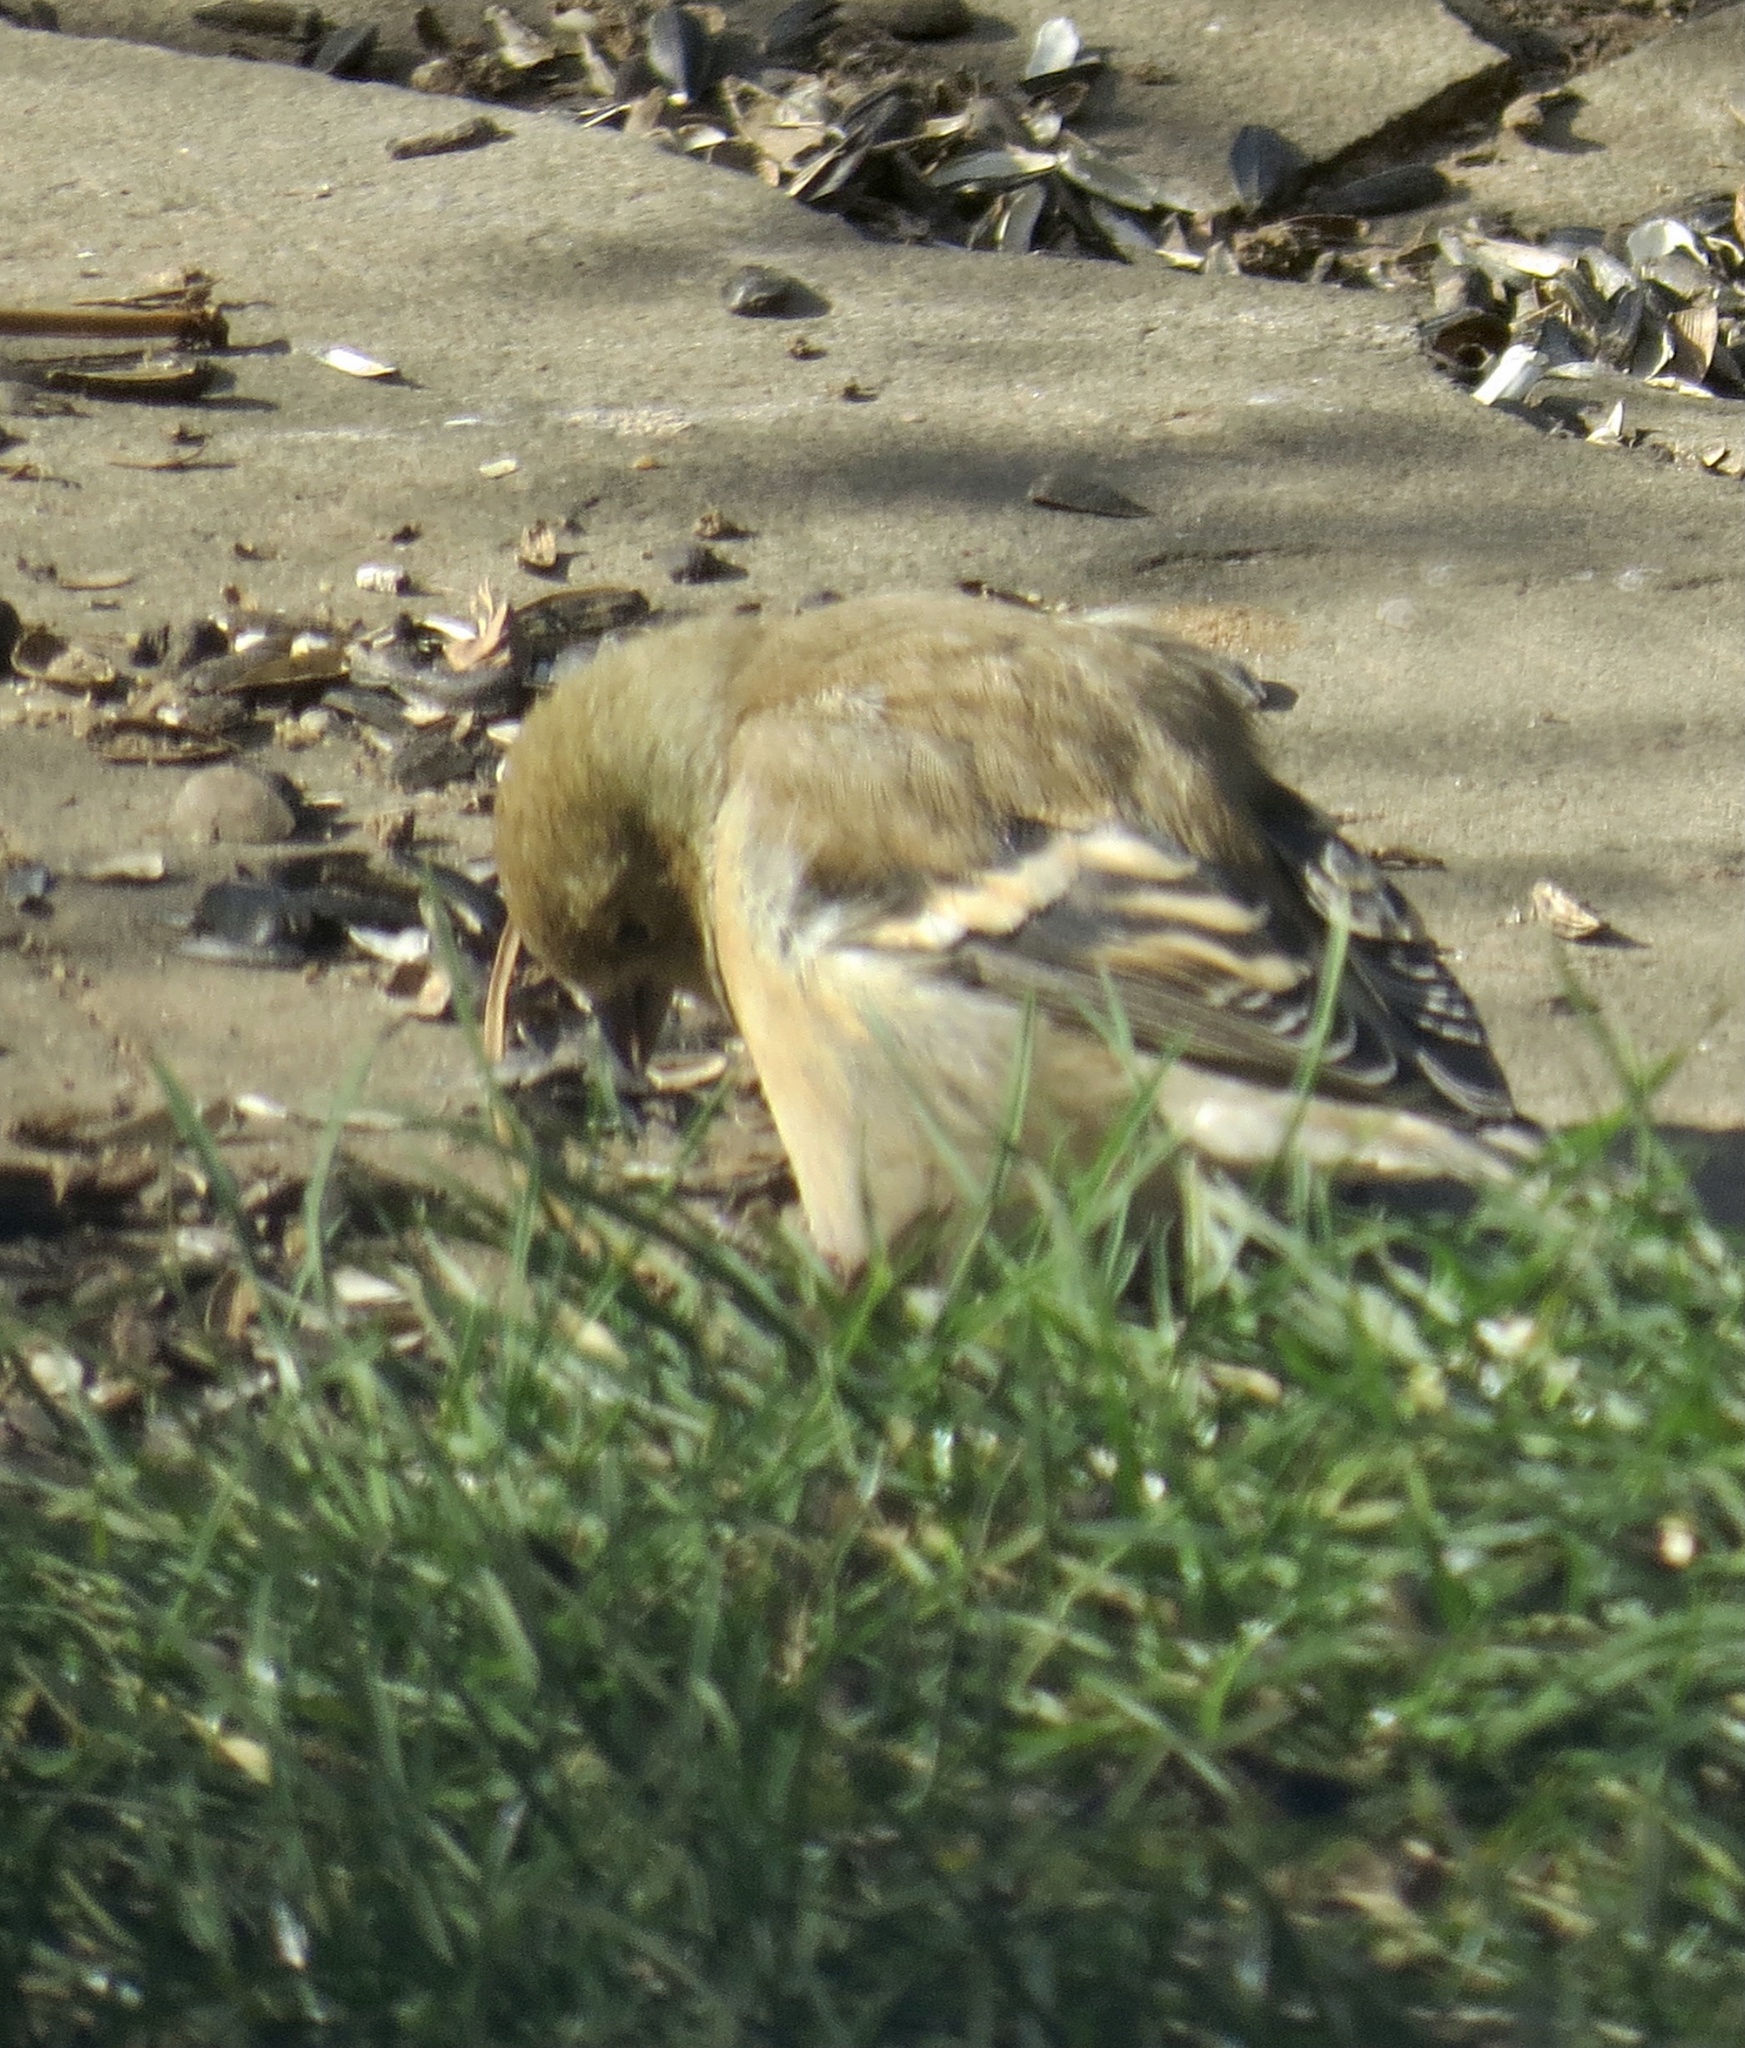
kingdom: Animalia
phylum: Chordata
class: Aves
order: Passeriformes
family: Fringillidae
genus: Spinus
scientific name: Spinus tristis
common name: American goldfinch
